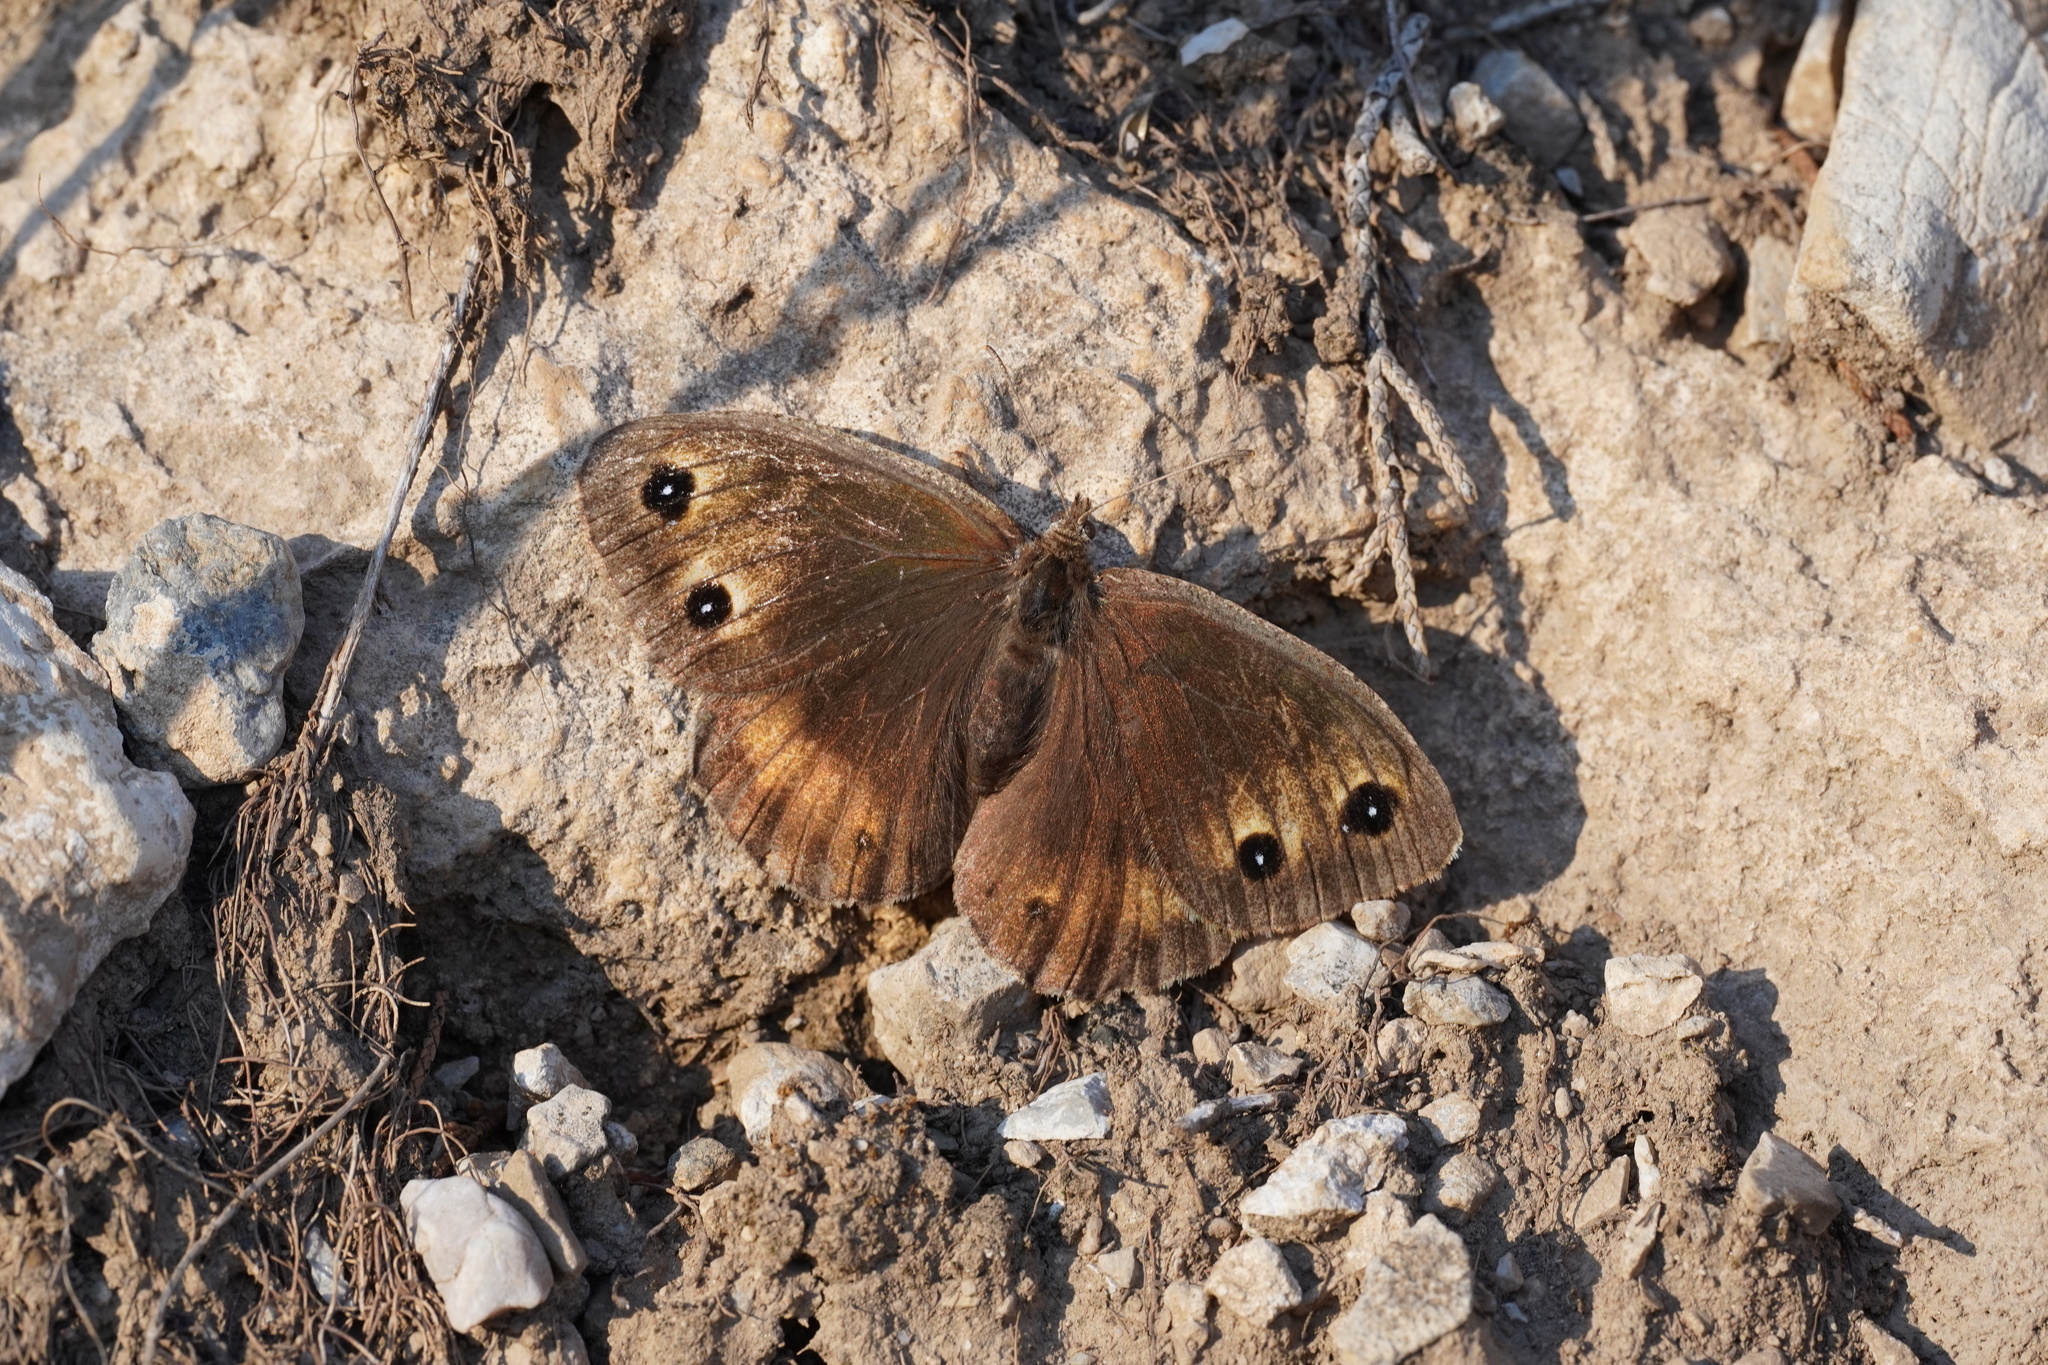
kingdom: Animalia
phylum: Arthropoda
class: Insecta
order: Lepidoptera
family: Nymphalidae
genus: Satyrus
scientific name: Satyrus ferula
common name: Great sooty satyr
